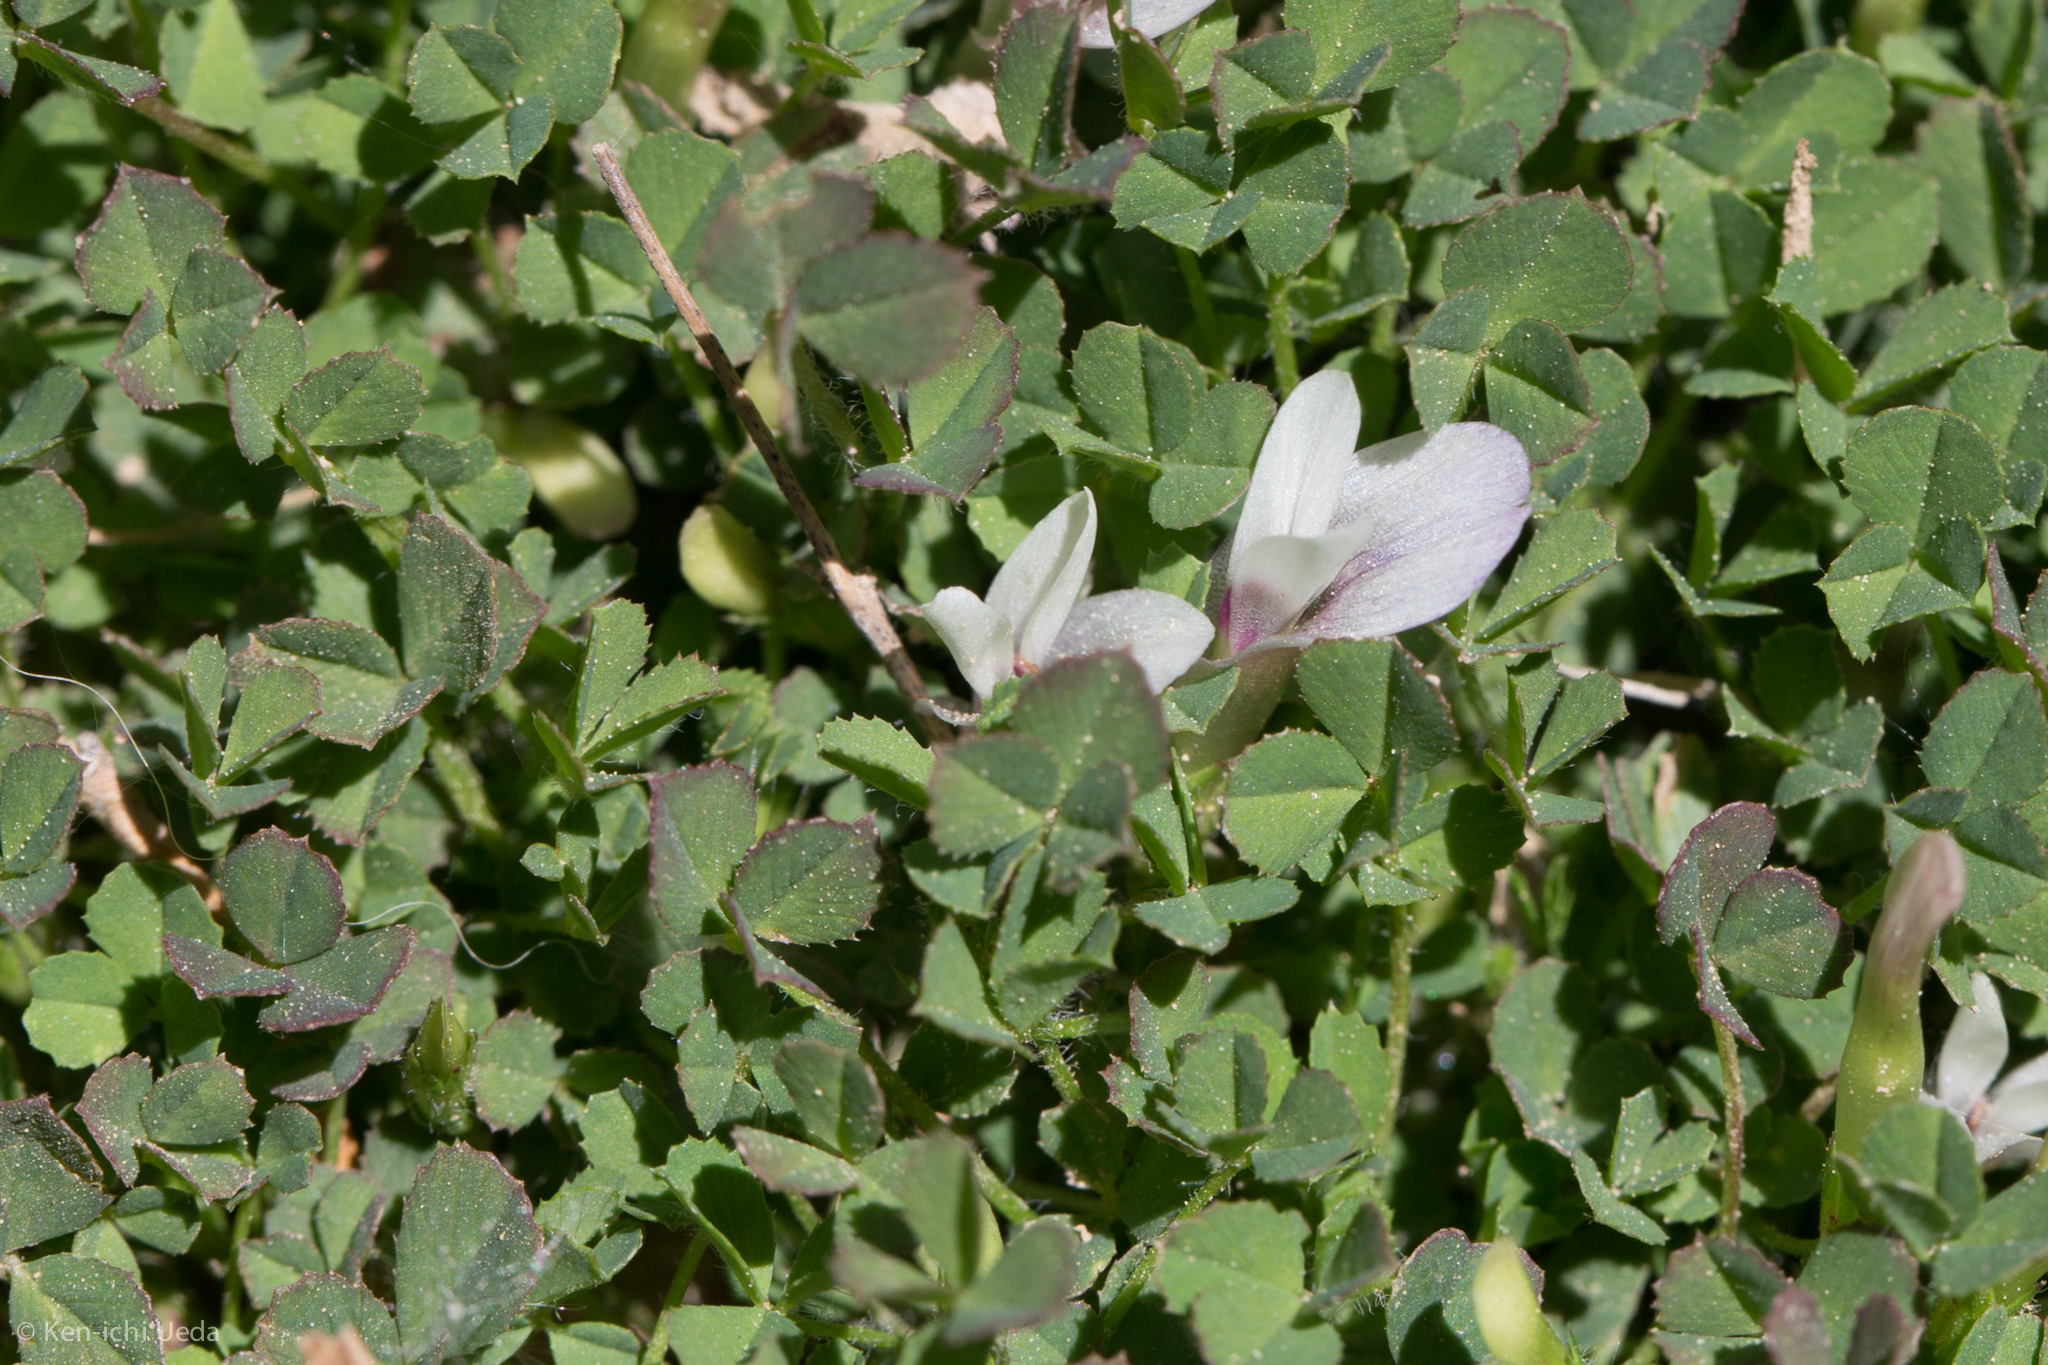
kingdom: Plantae
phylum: Tracheophyta
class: Magnoliopsida
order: Fabales
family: Fabaceae
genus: Trifolium
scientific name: Trifolium monanthum
